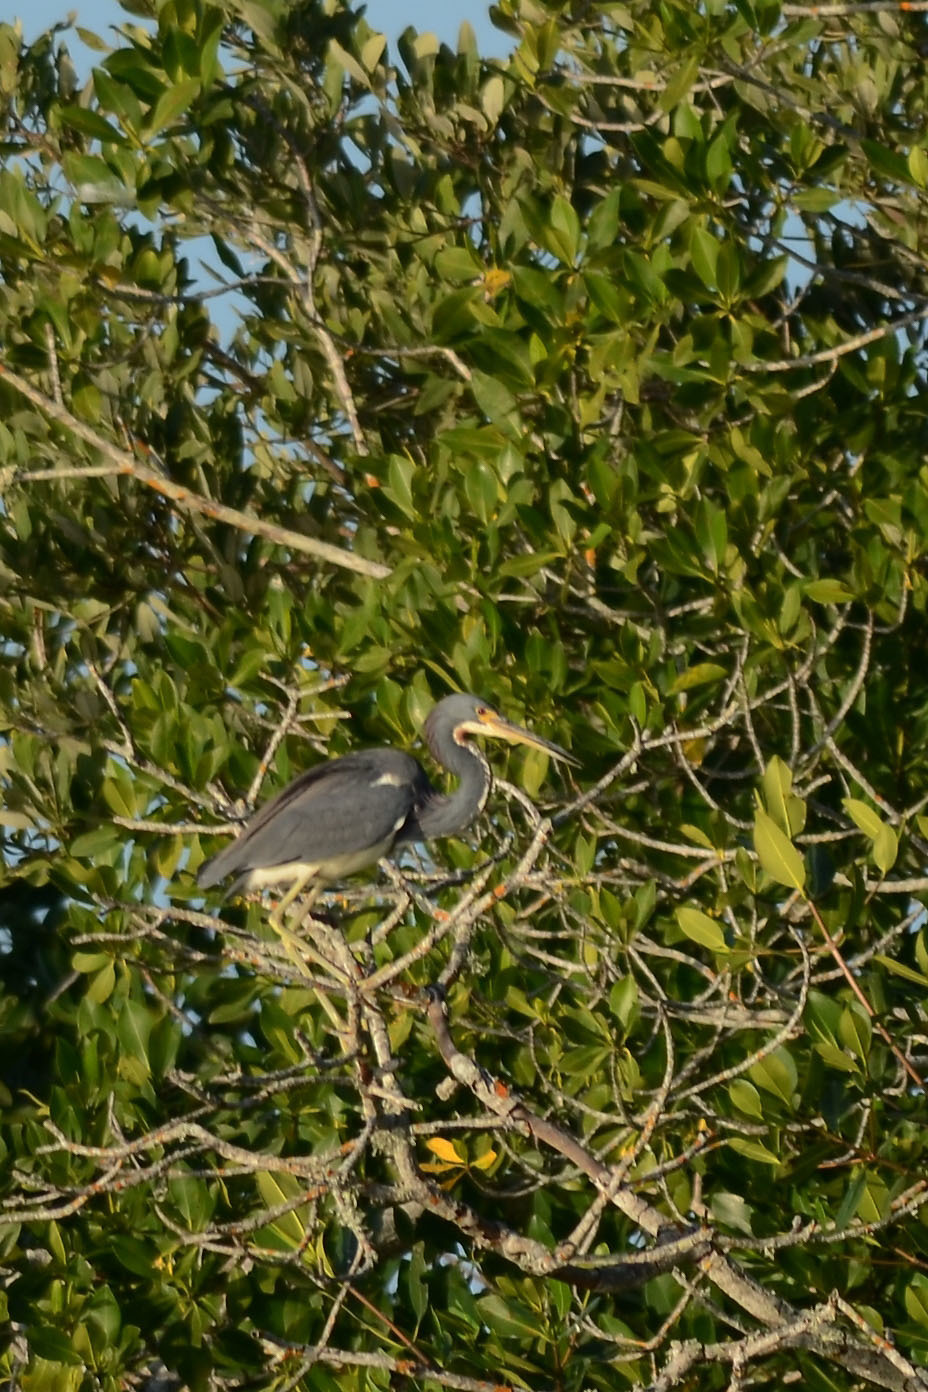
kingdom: Animalia
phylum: Chordata
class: Aves
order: Pelecaniformes
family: Ardeidae
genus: Egretta
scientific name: Egretta tricolor
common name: Tricolored heron
